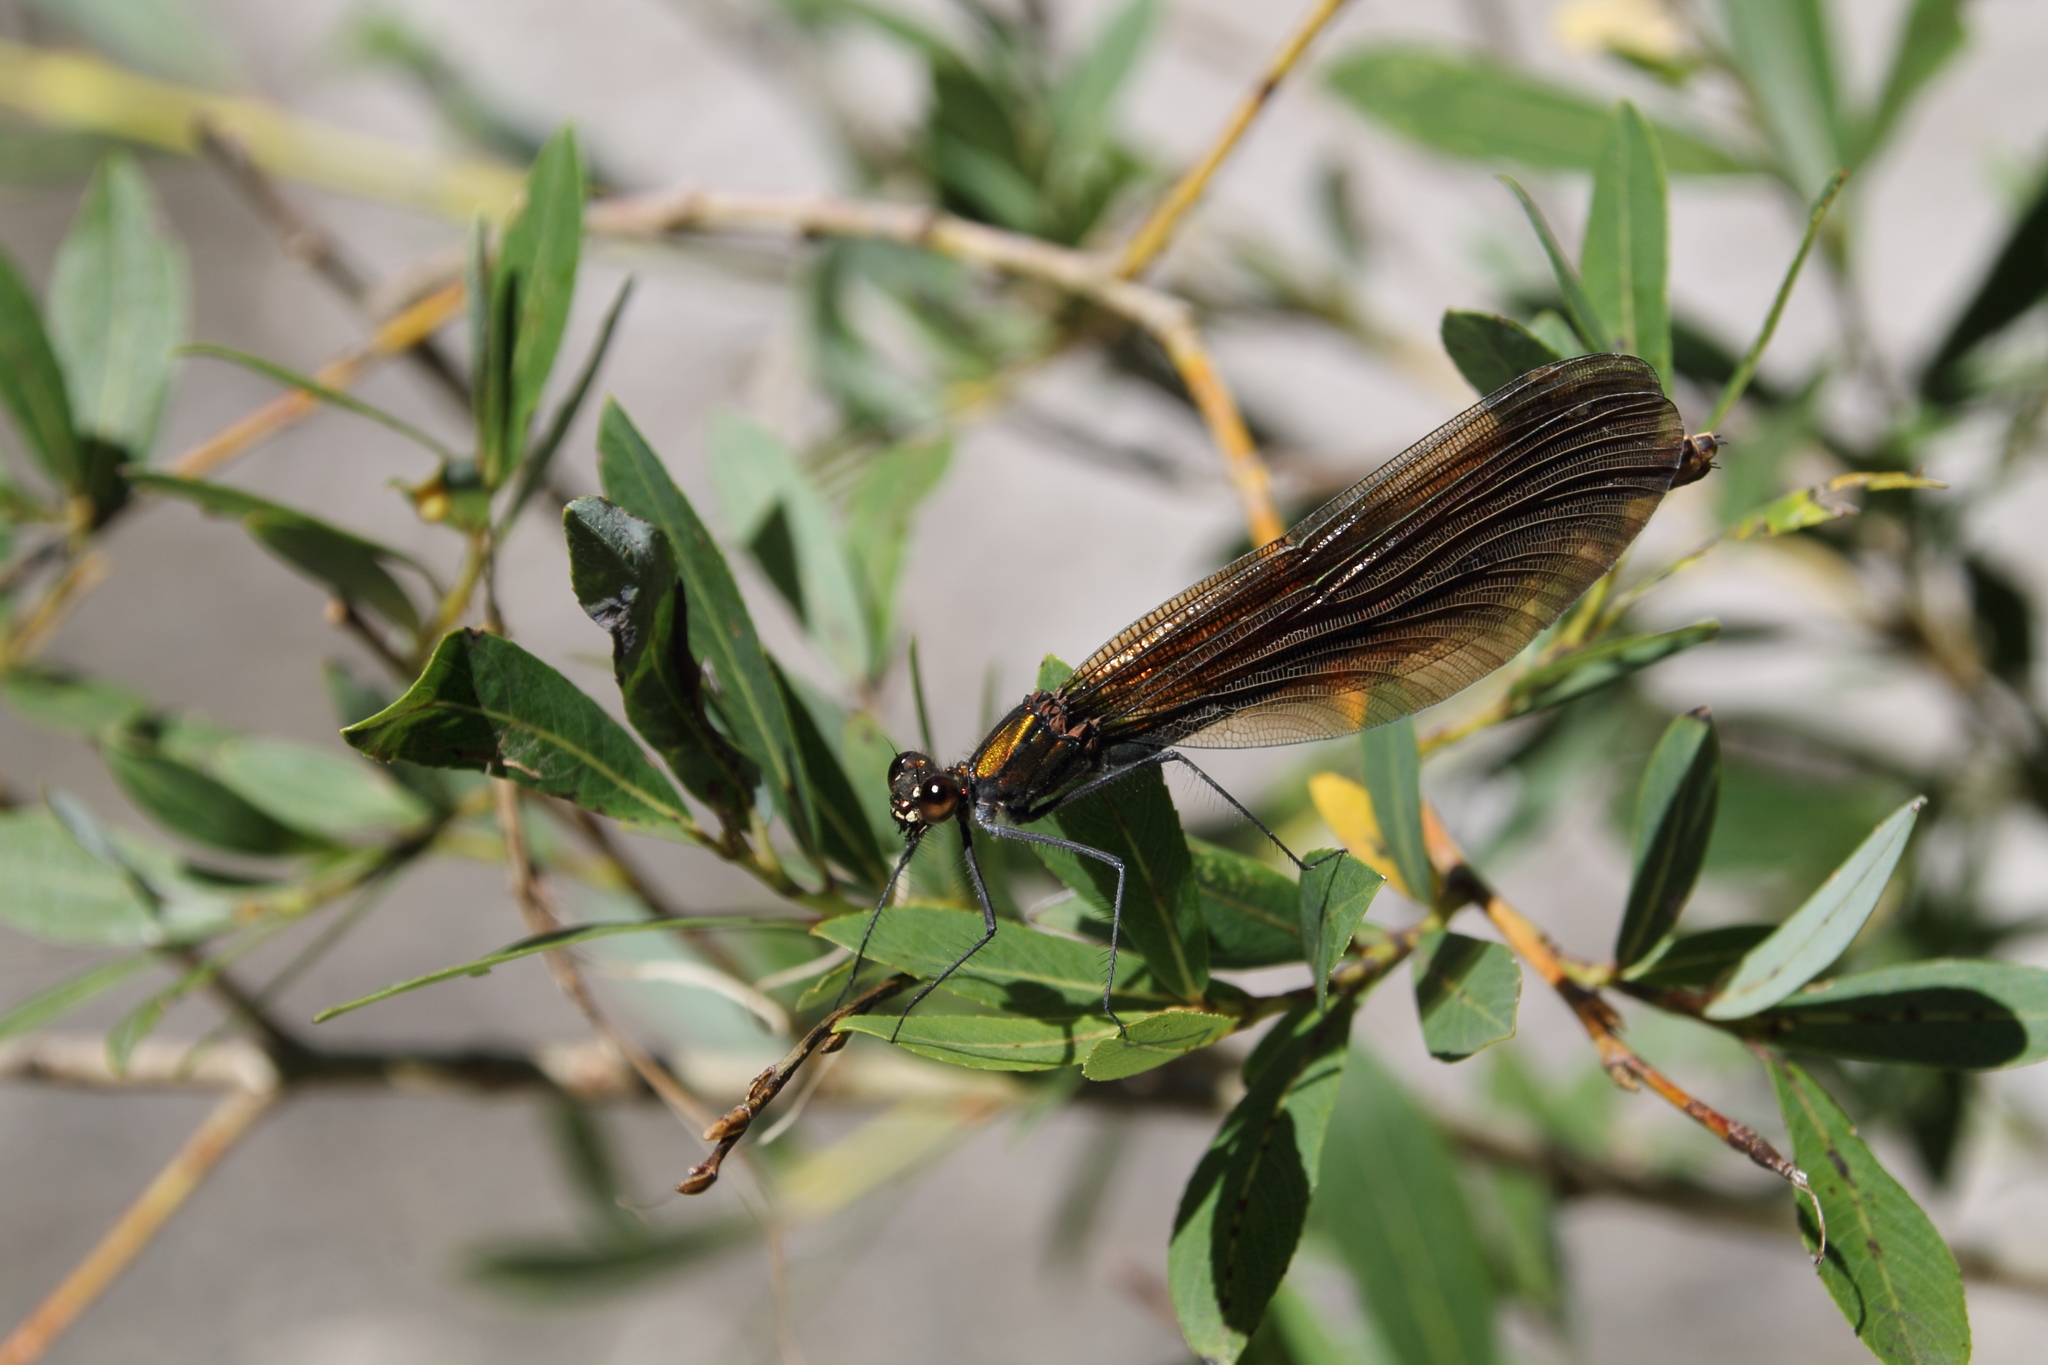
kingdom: Animalia
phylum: Arthropoda
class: Insecta
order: Odonata
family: Calopterygidae
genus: Calopteryx
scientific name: Calopteryx virgo
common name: Beautiful demoiselle
